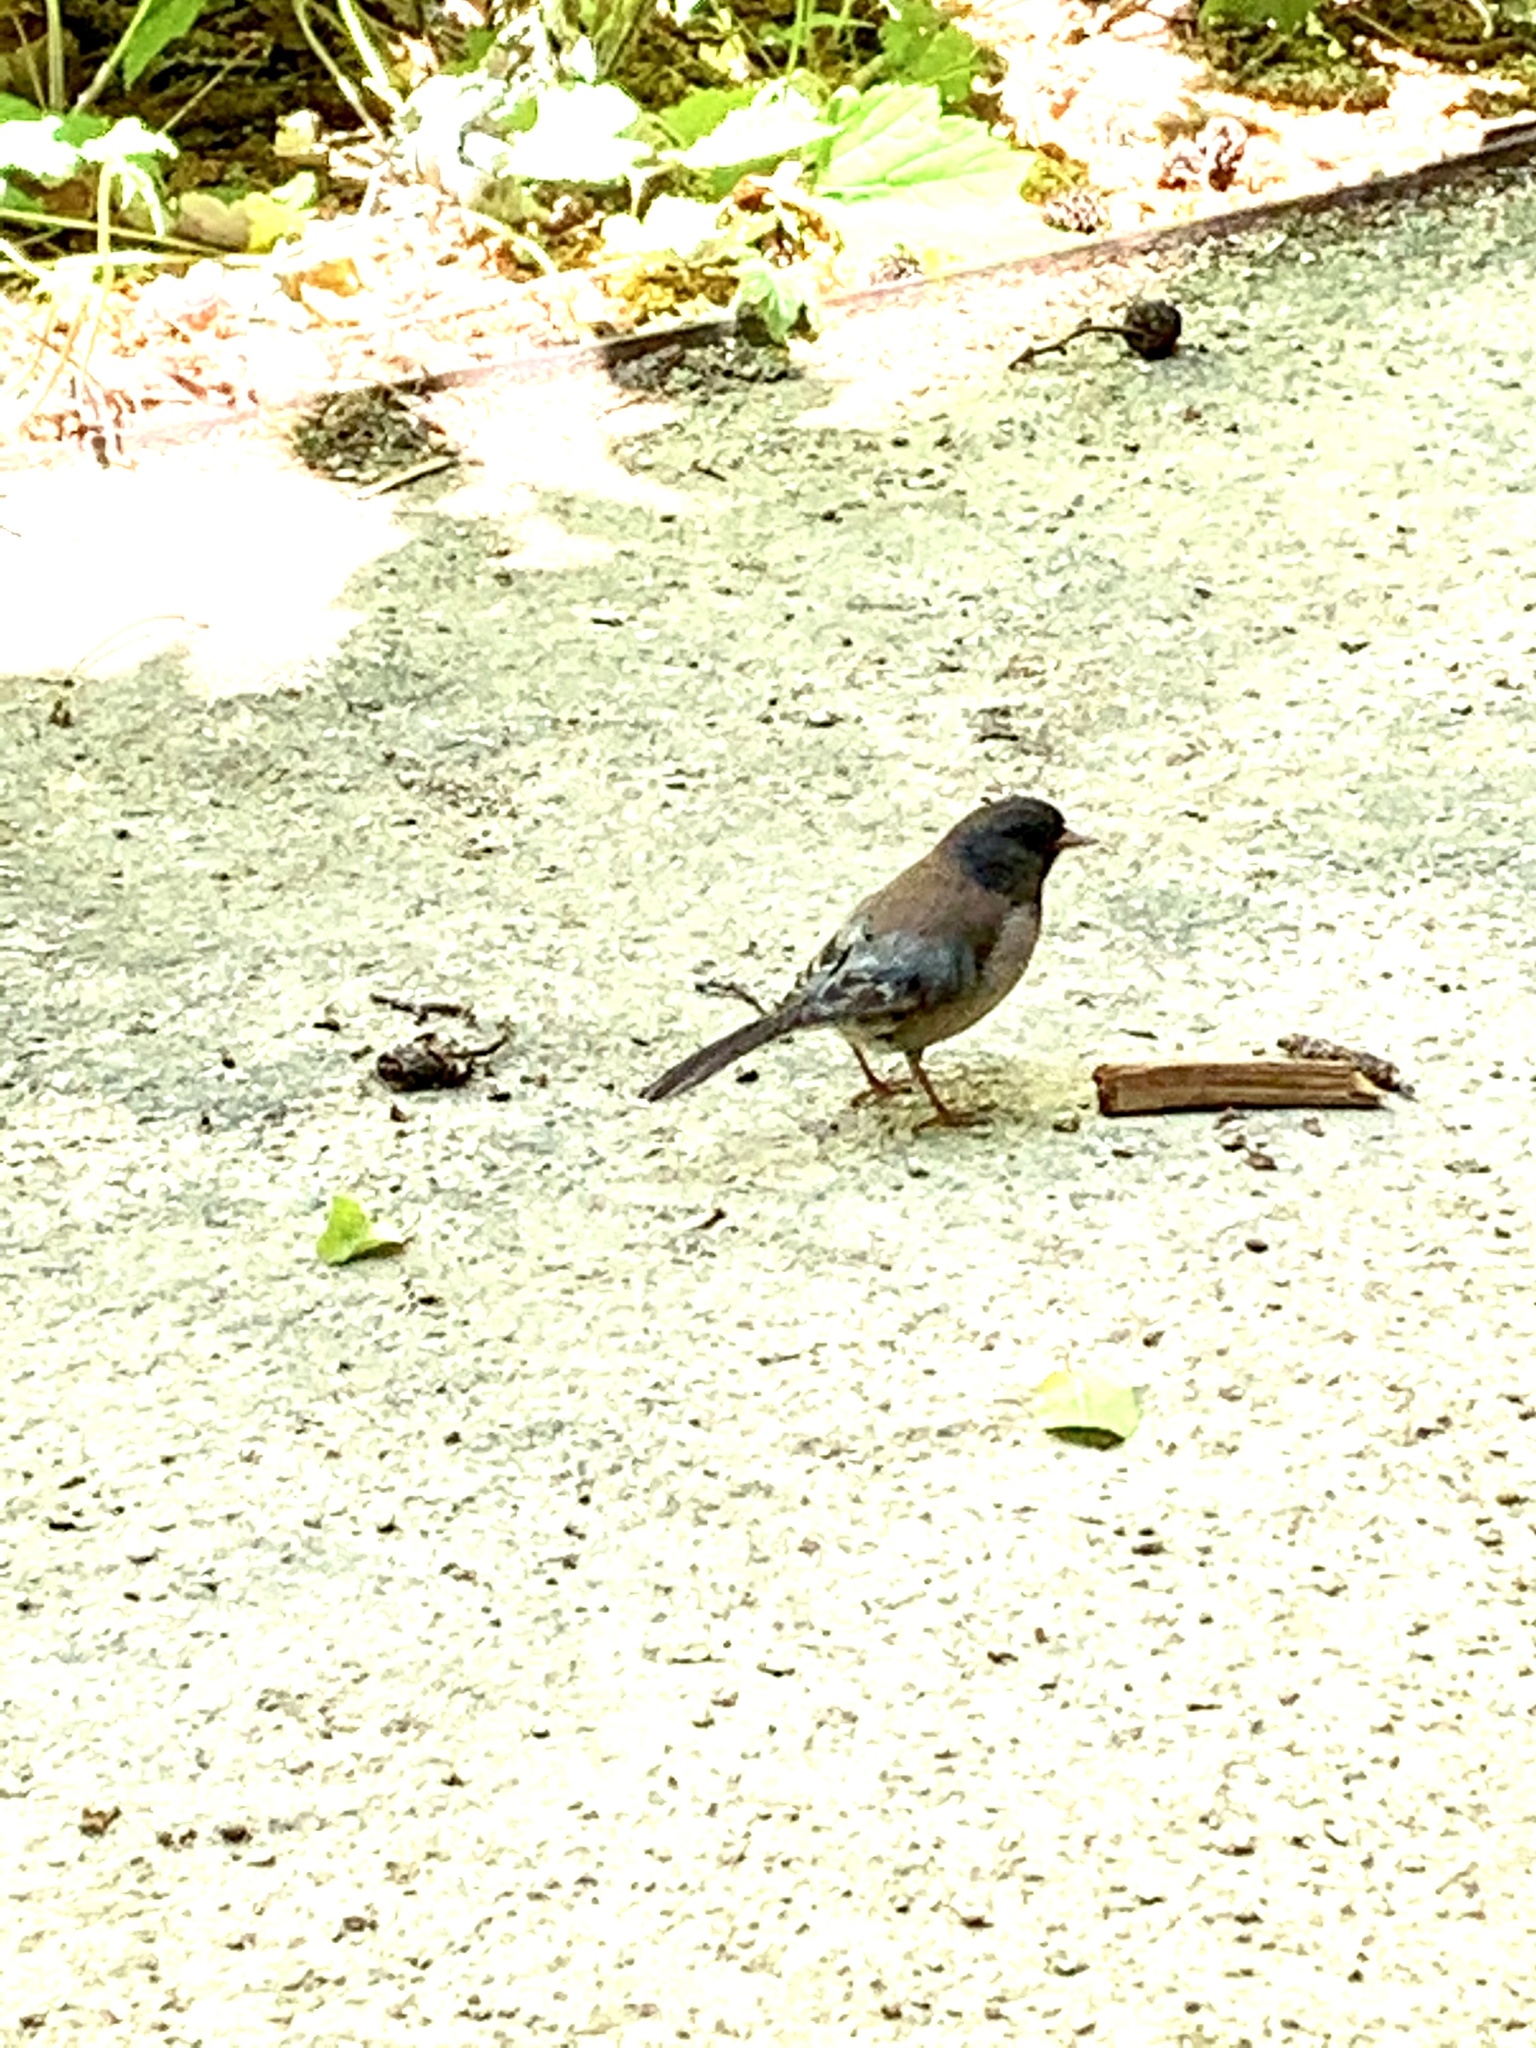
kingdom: Animalia
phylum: Chordata
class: Aves
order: Passeriformes
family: Passerellidae
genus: Junco
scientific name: Junco hyemalis
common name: Dark-eyed junco
